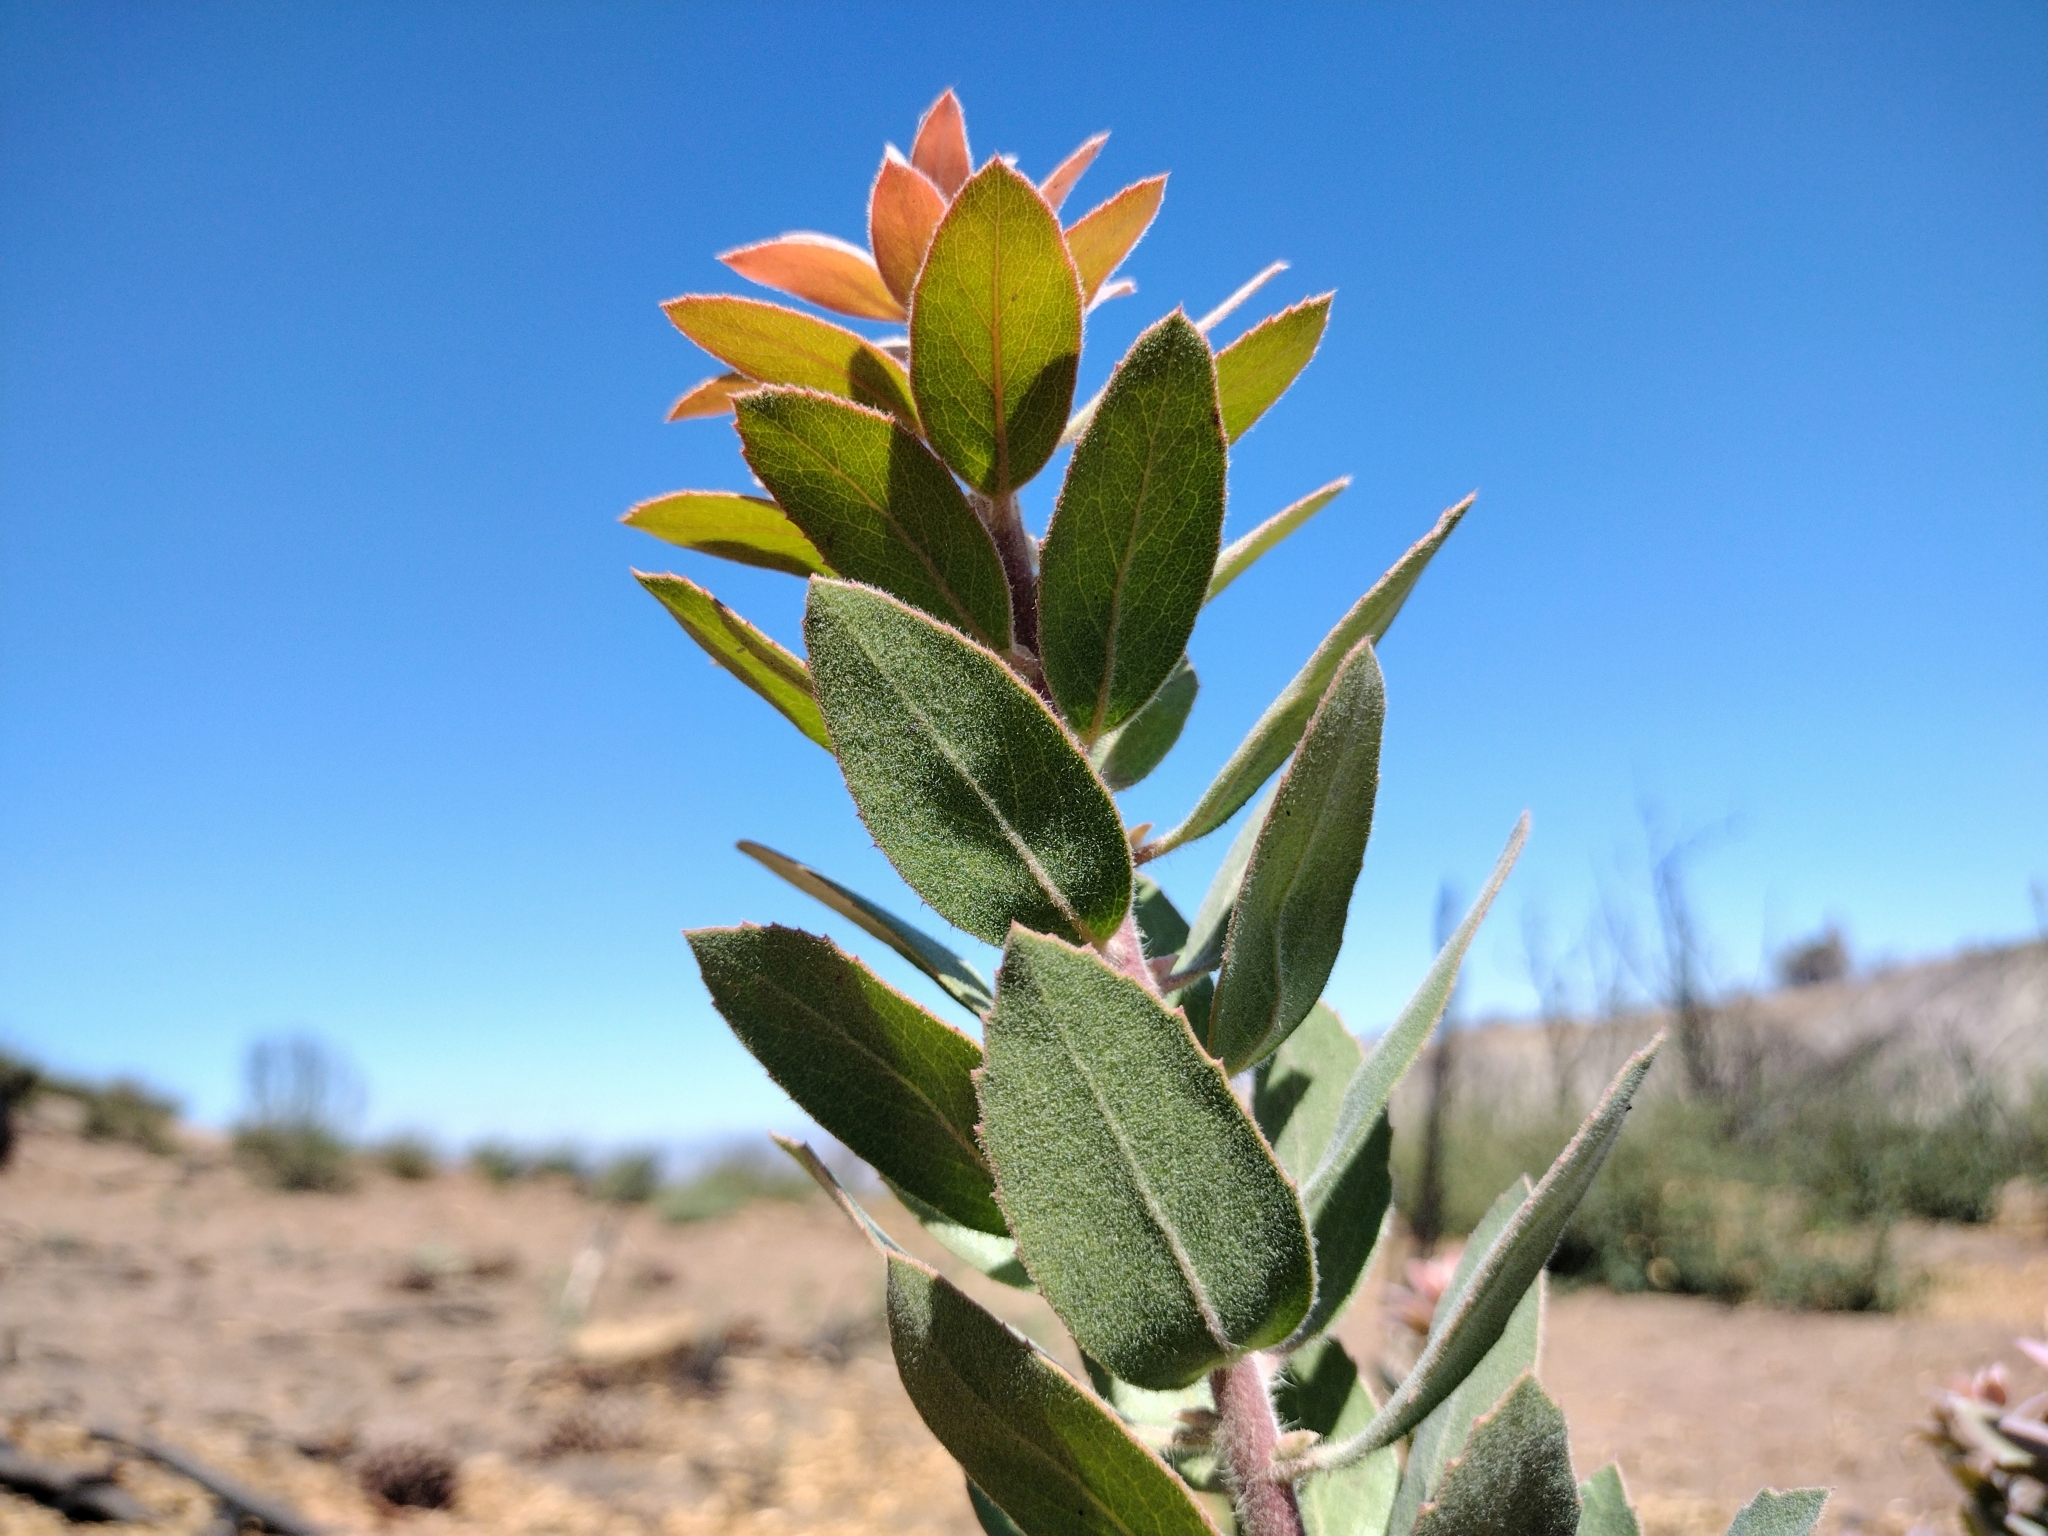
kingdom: Plantae
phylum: Tracheophyta
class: Magnoliopsida
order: Ericales
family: Ericaceae
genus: Arctostaphylos
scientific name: Arctostaphylos glandulosa
